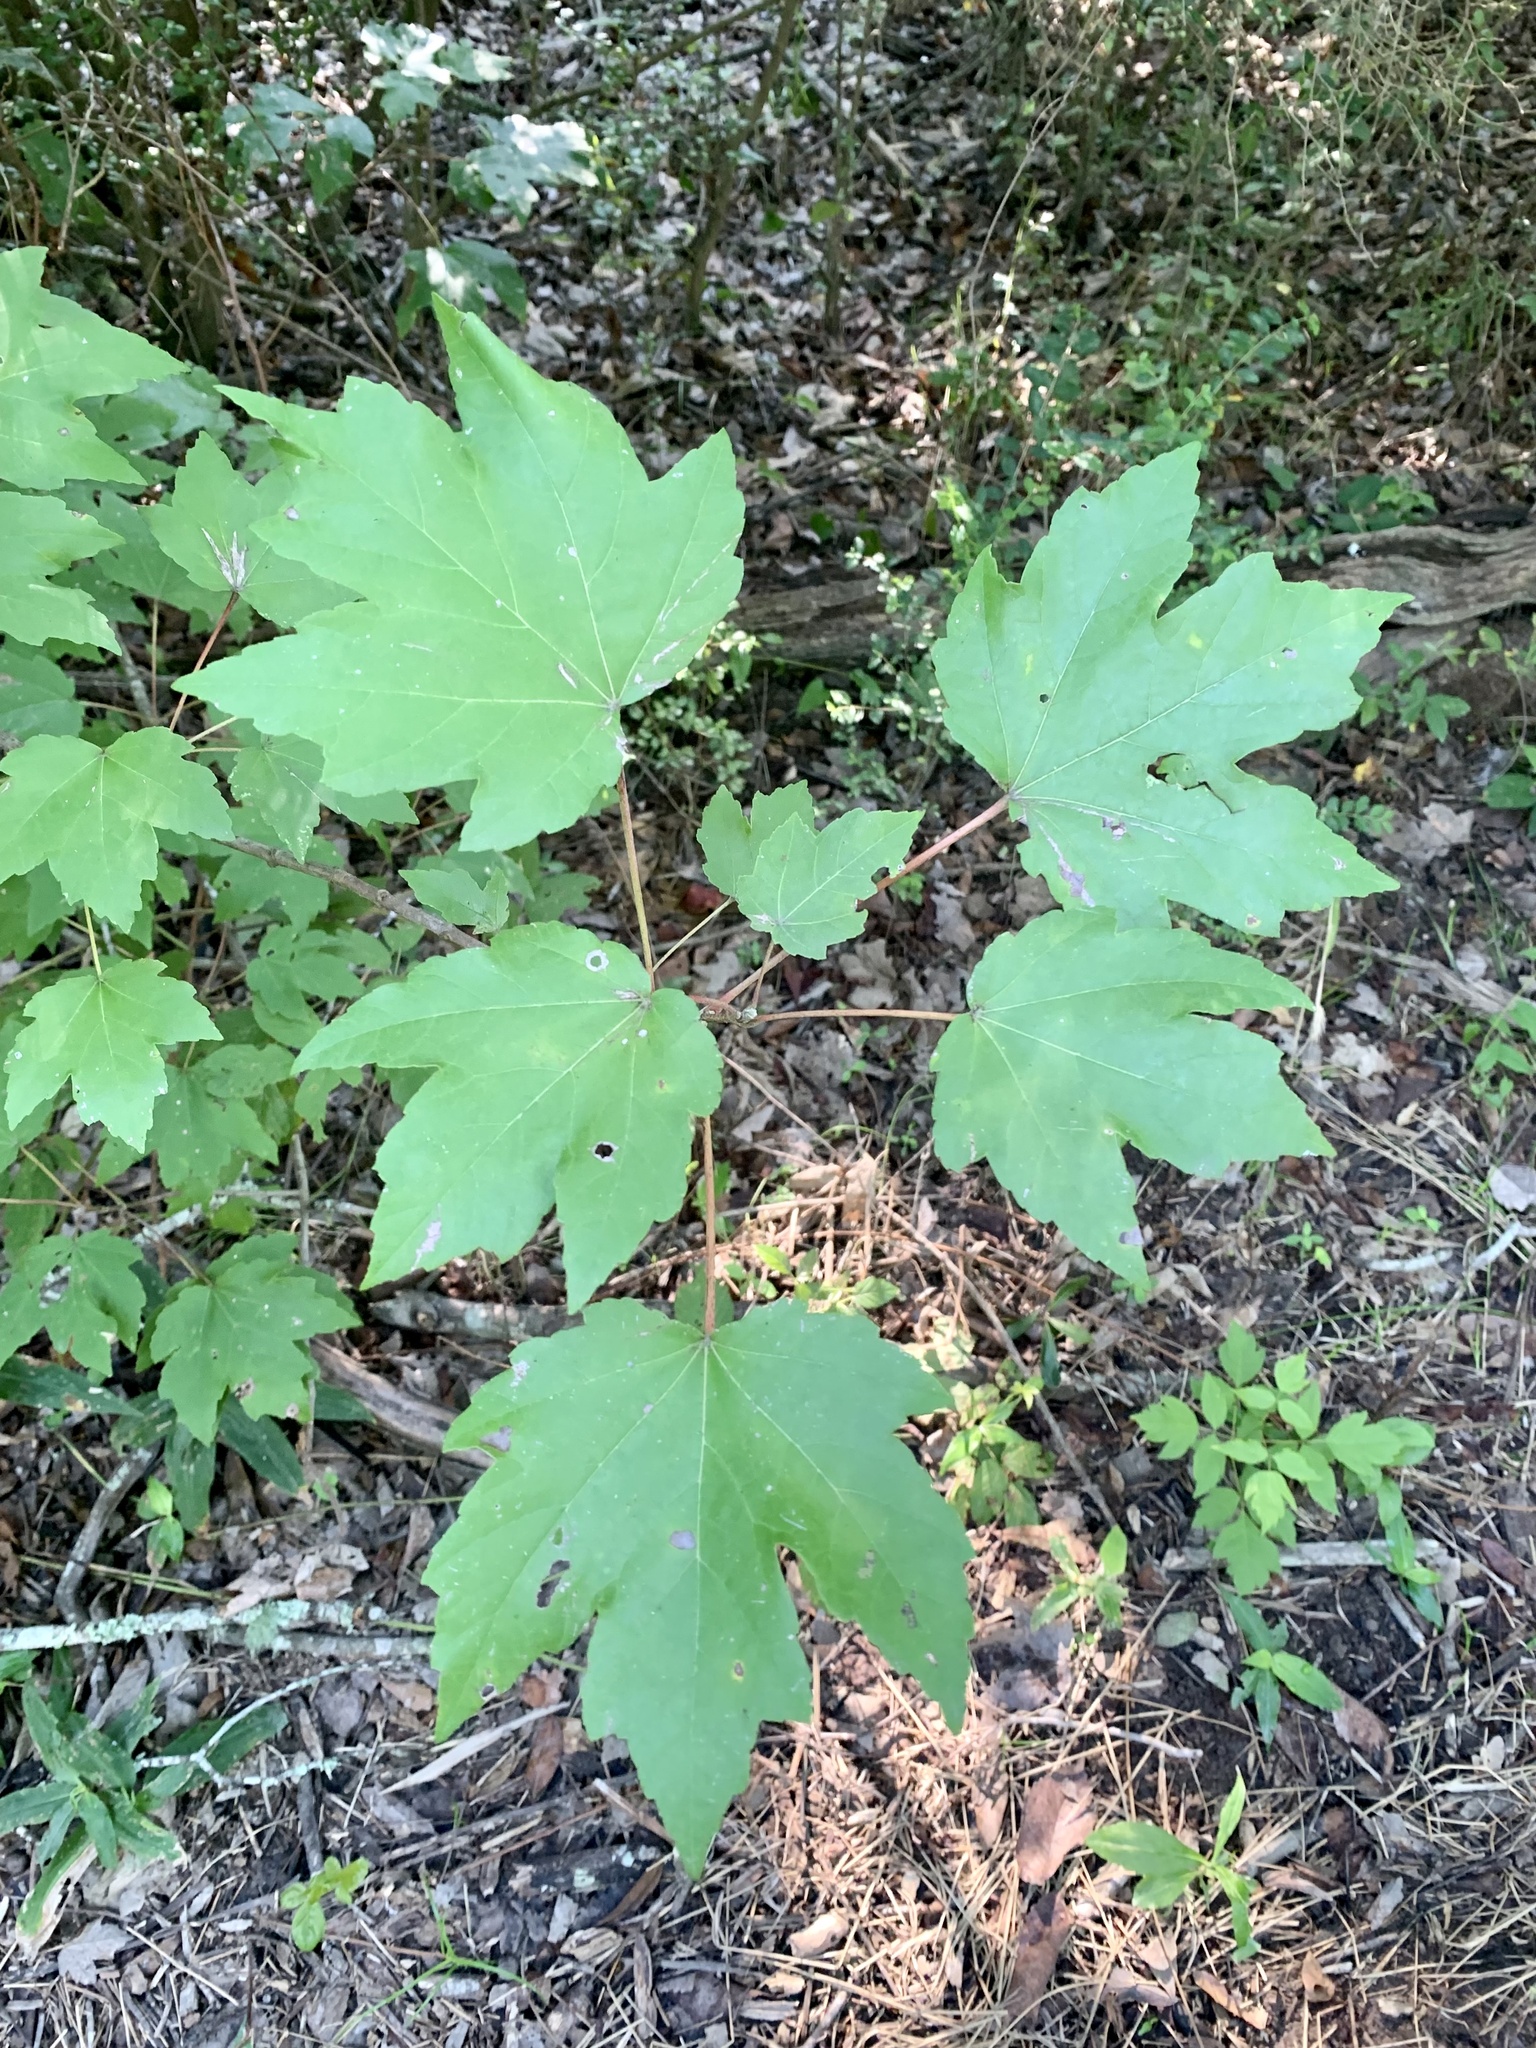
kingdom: Plantae
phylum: Tracheophyta
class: Magnoliopsida
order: Sapindales
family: Sapindaceae
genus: Acer
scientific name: Acer rubrum
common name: Red maple
